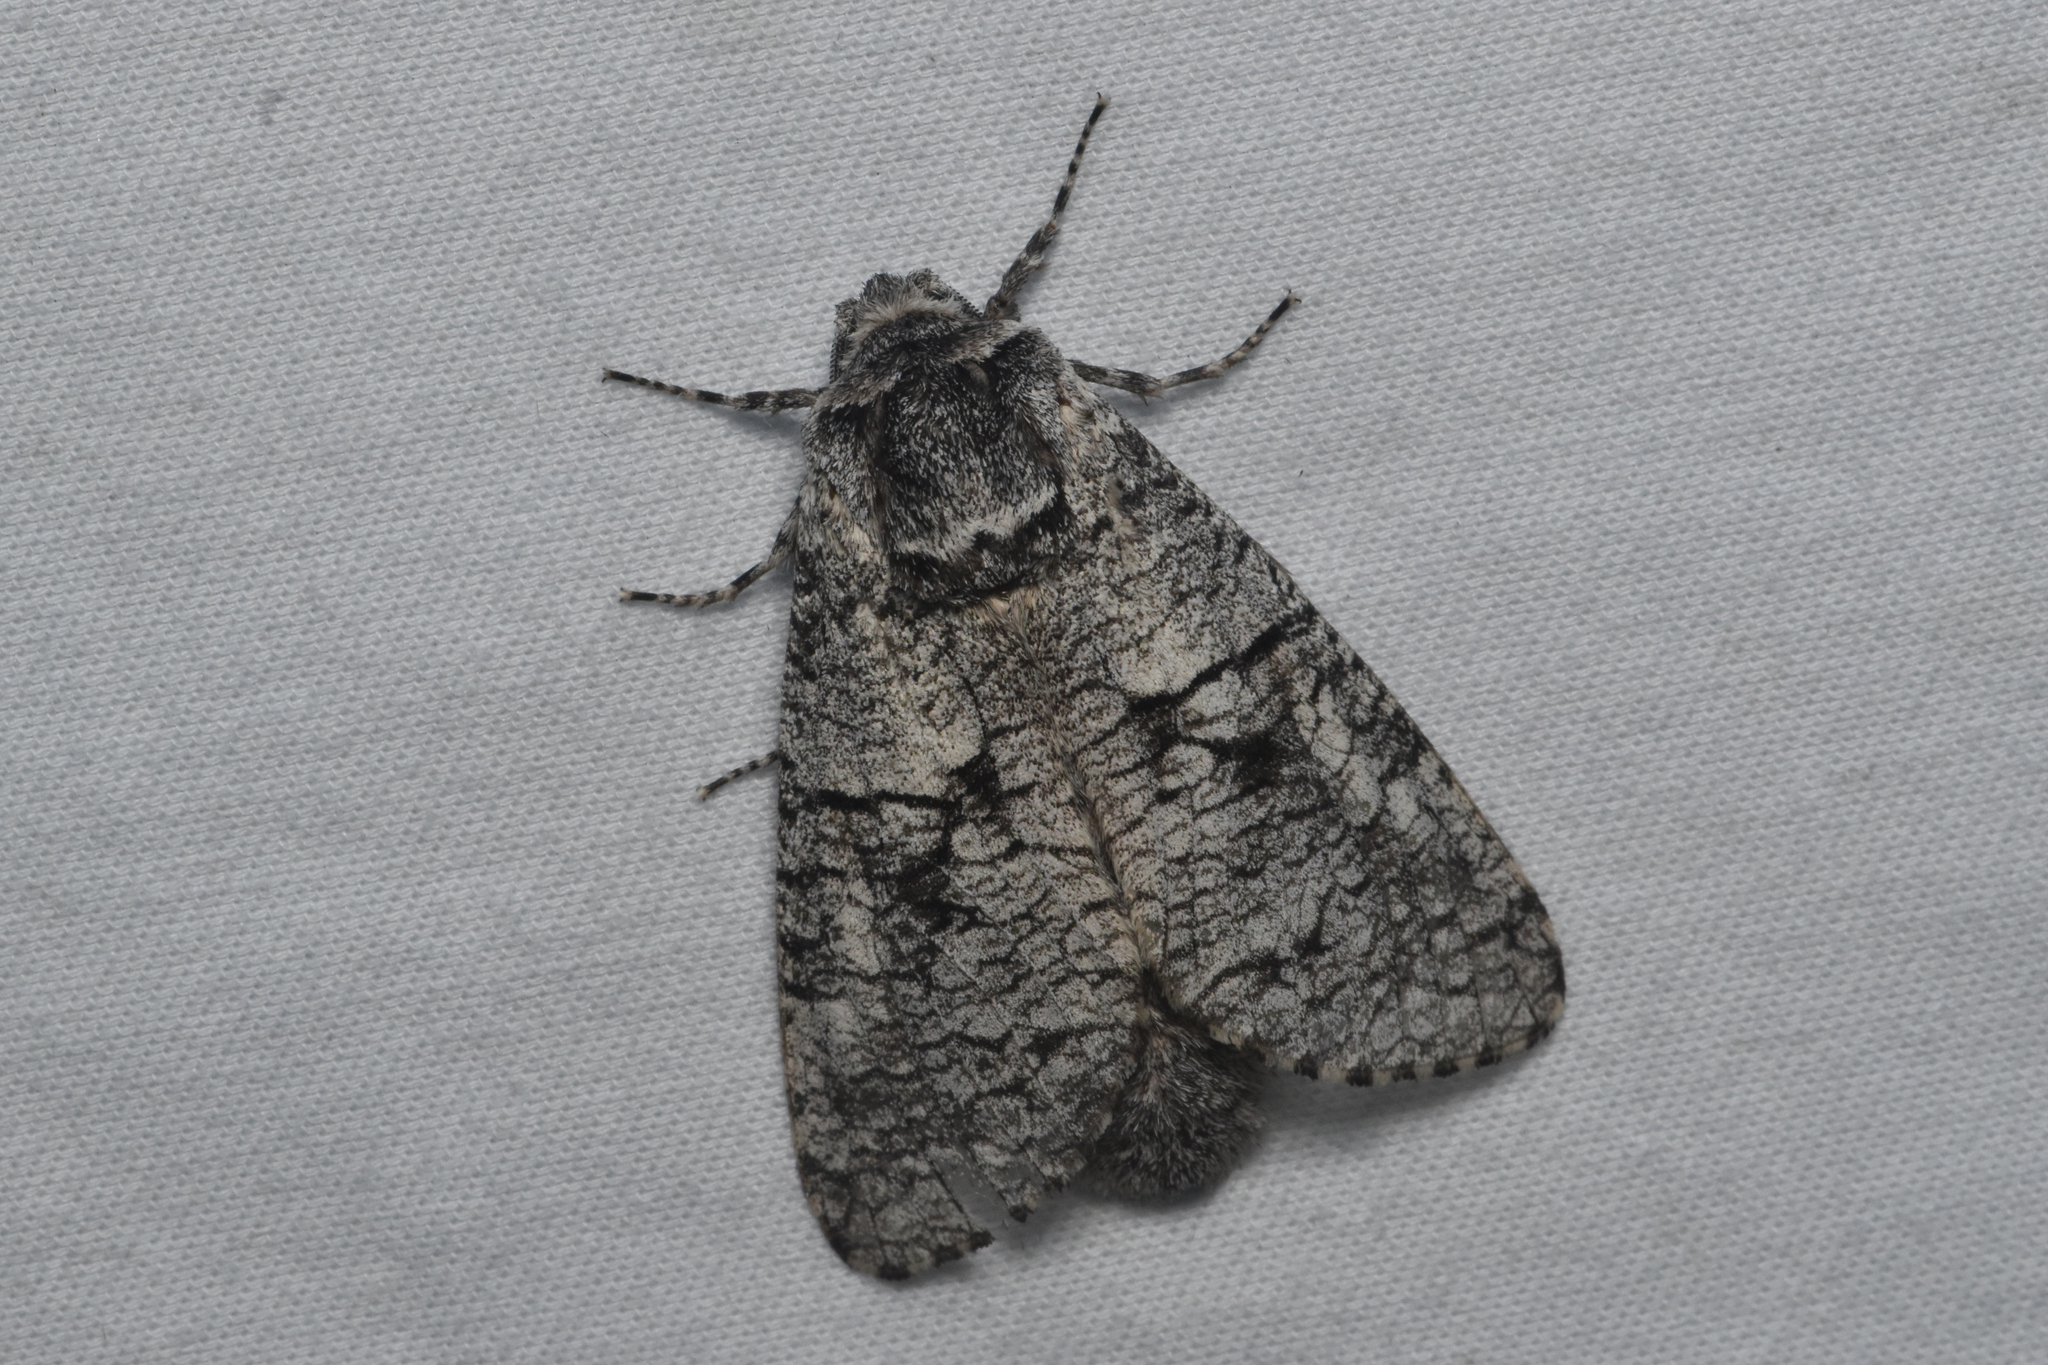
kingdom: Animalia
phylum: Arthropoda
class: Insecta
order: Lepidoptera
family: Cossidae
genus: Acossus
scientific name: Acossus populi
